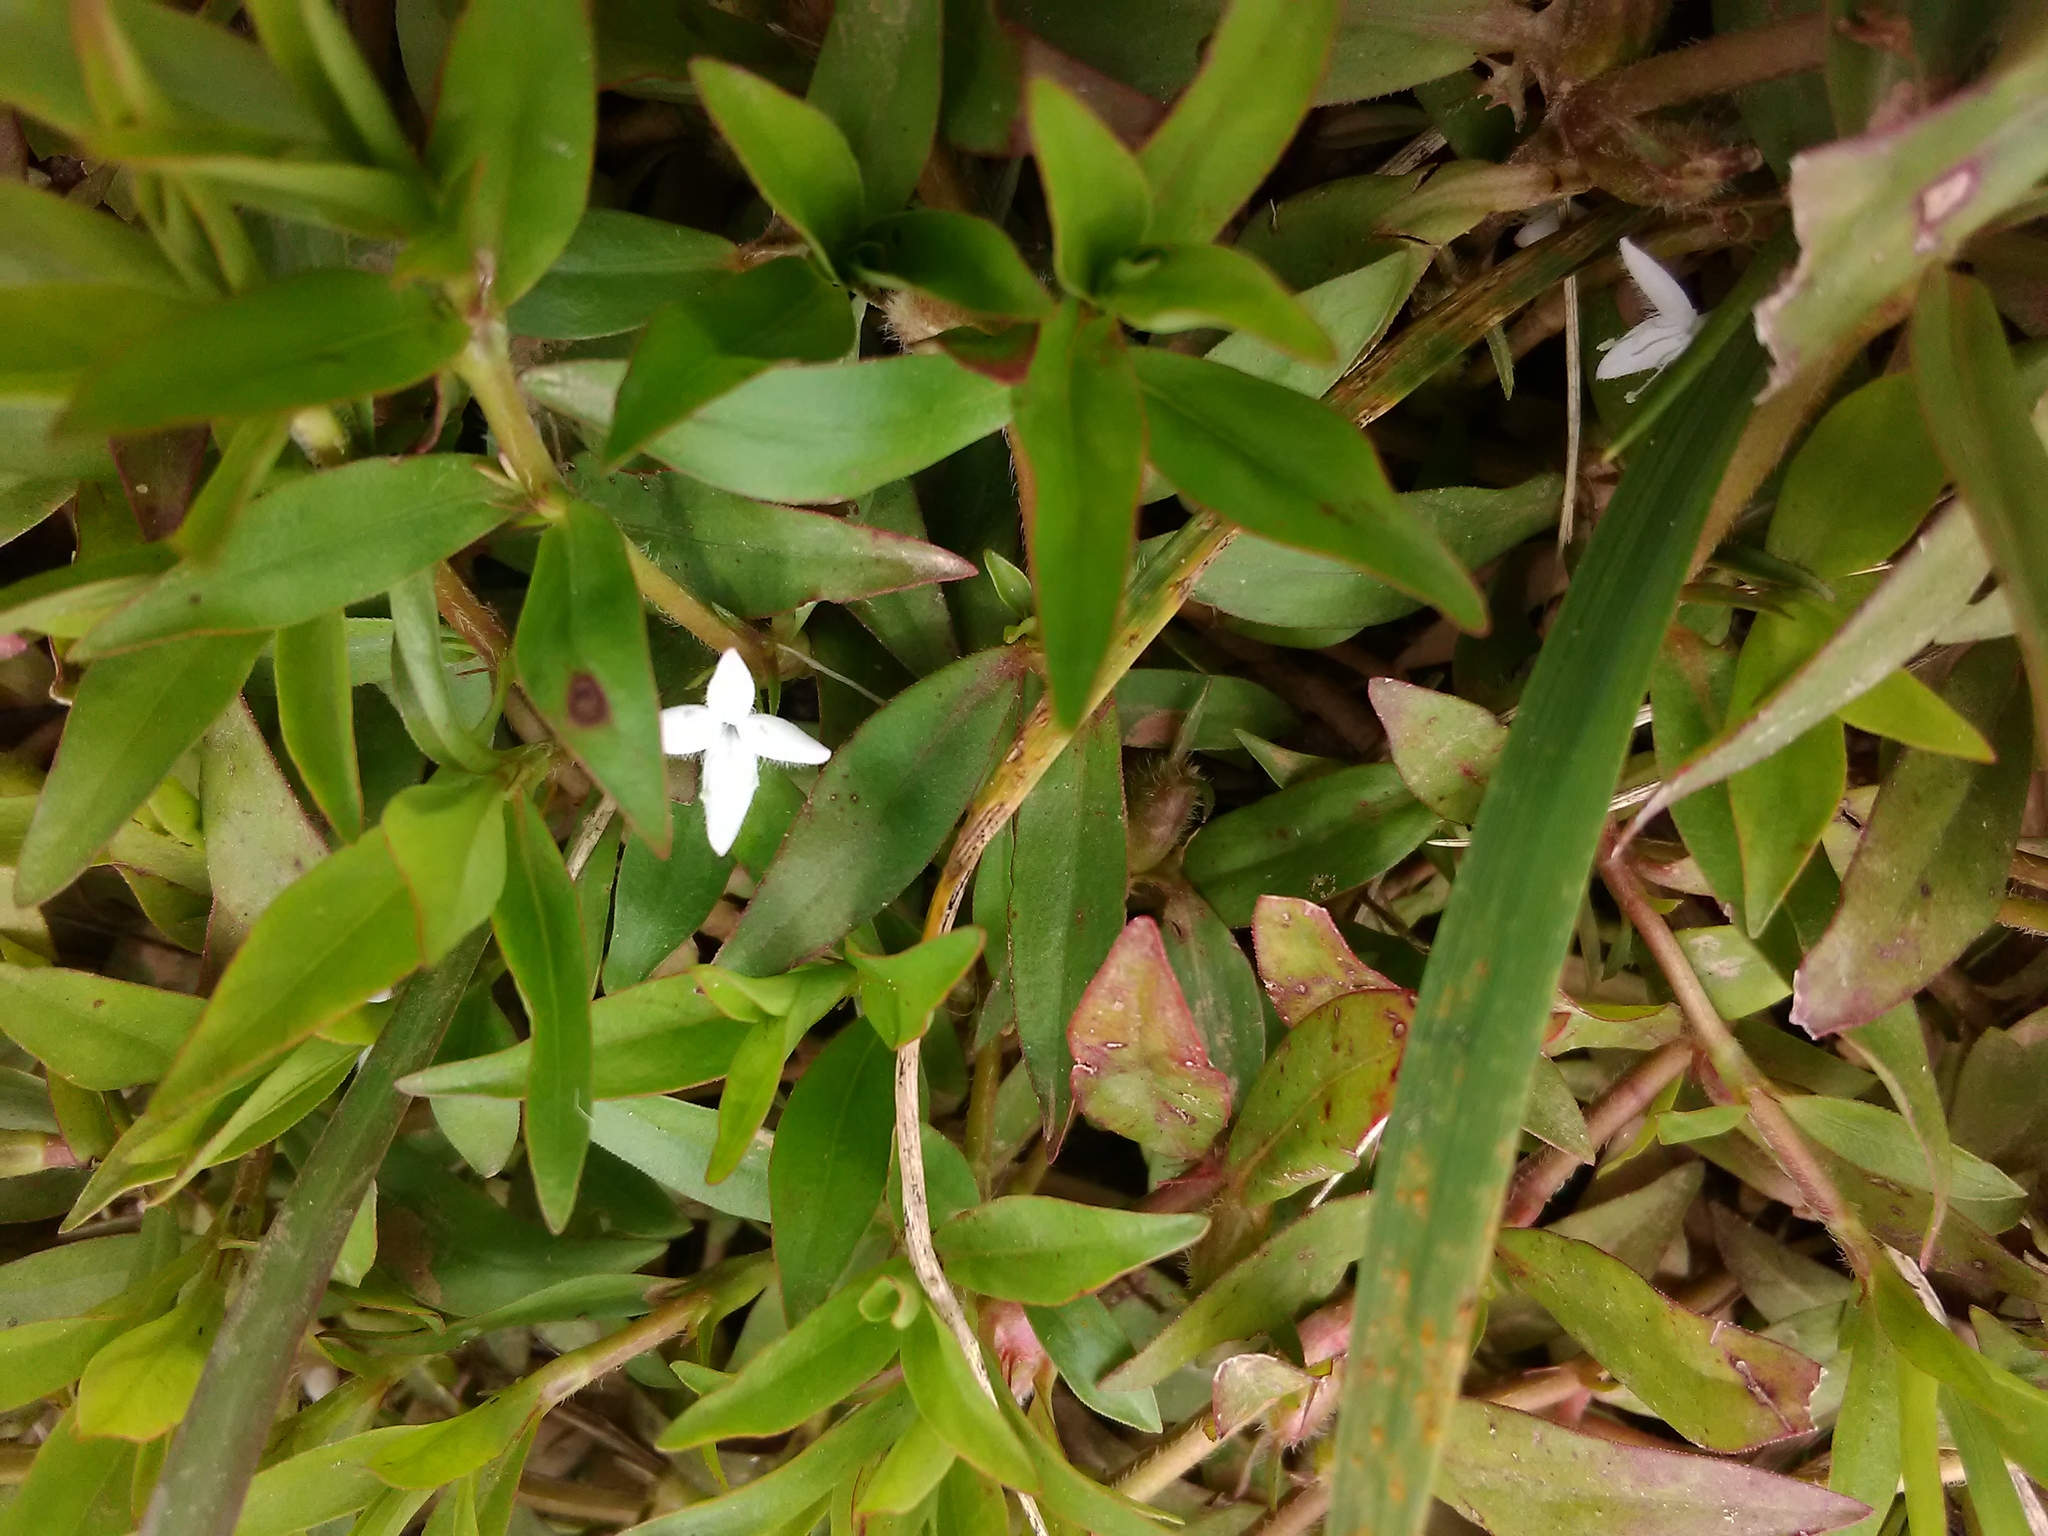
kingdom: Plantae
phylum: Tracheophyta
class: Magnoliopsida
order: Gentianales
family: Rubiaceae
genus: Diodia
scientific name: Diodia virginiana
